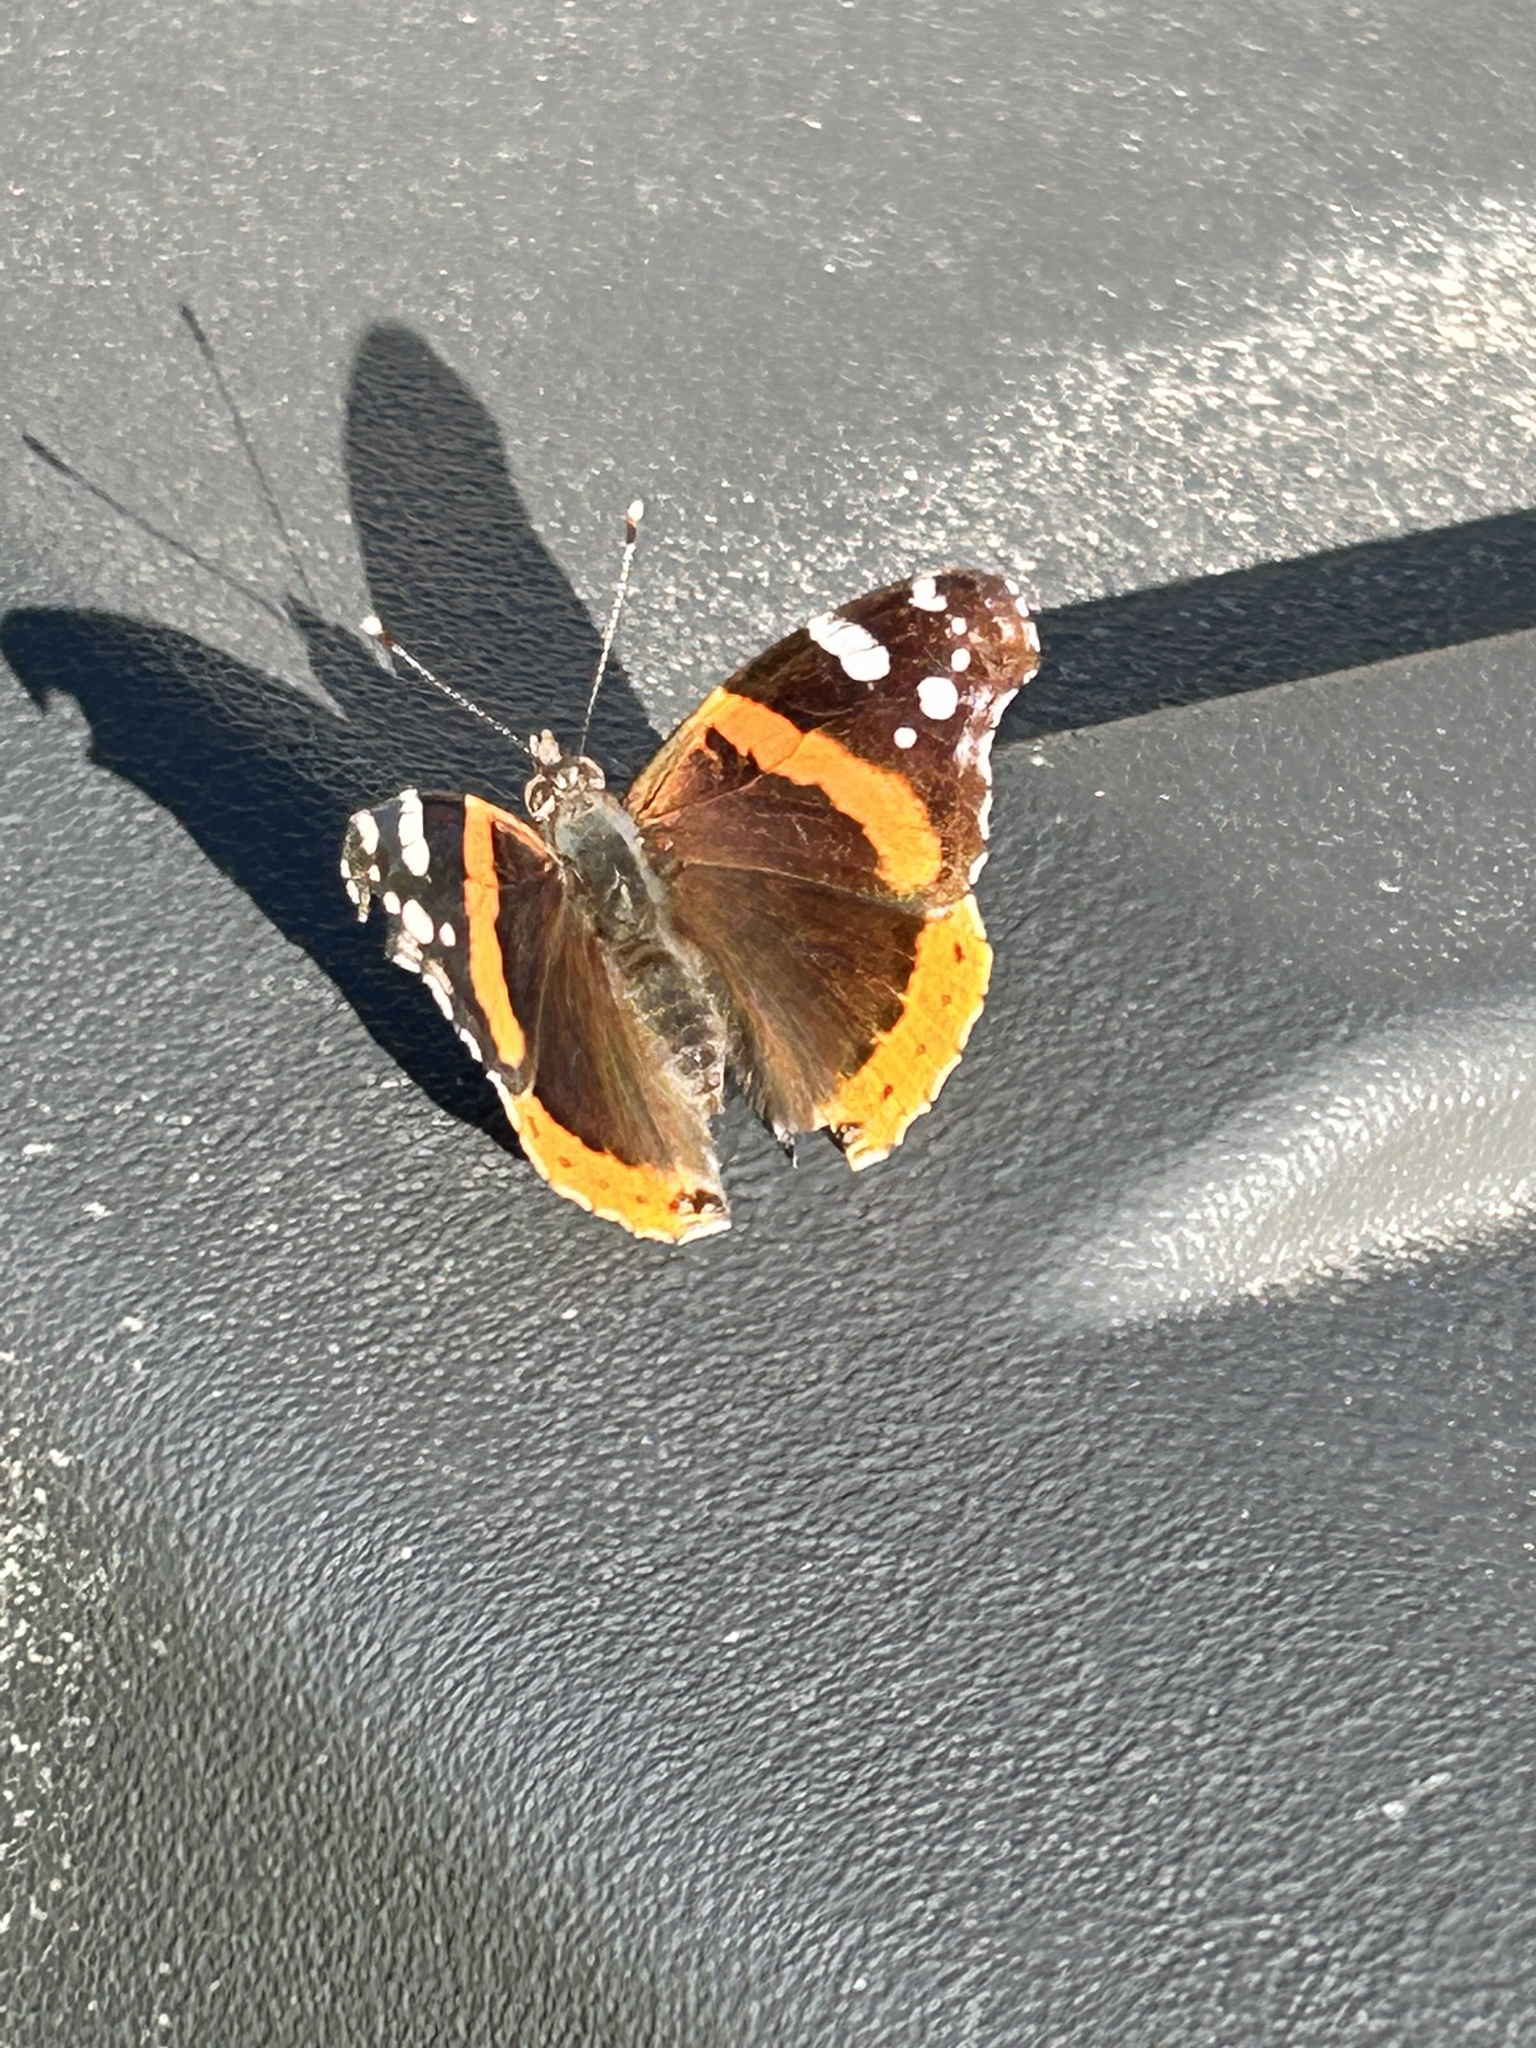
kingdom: Animalia
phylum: Arthropoda
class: Insecta
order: Lepidoptera
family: Nymphalidae
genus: Vanessa
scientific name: Vanessa atalanta
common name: Red admiral
